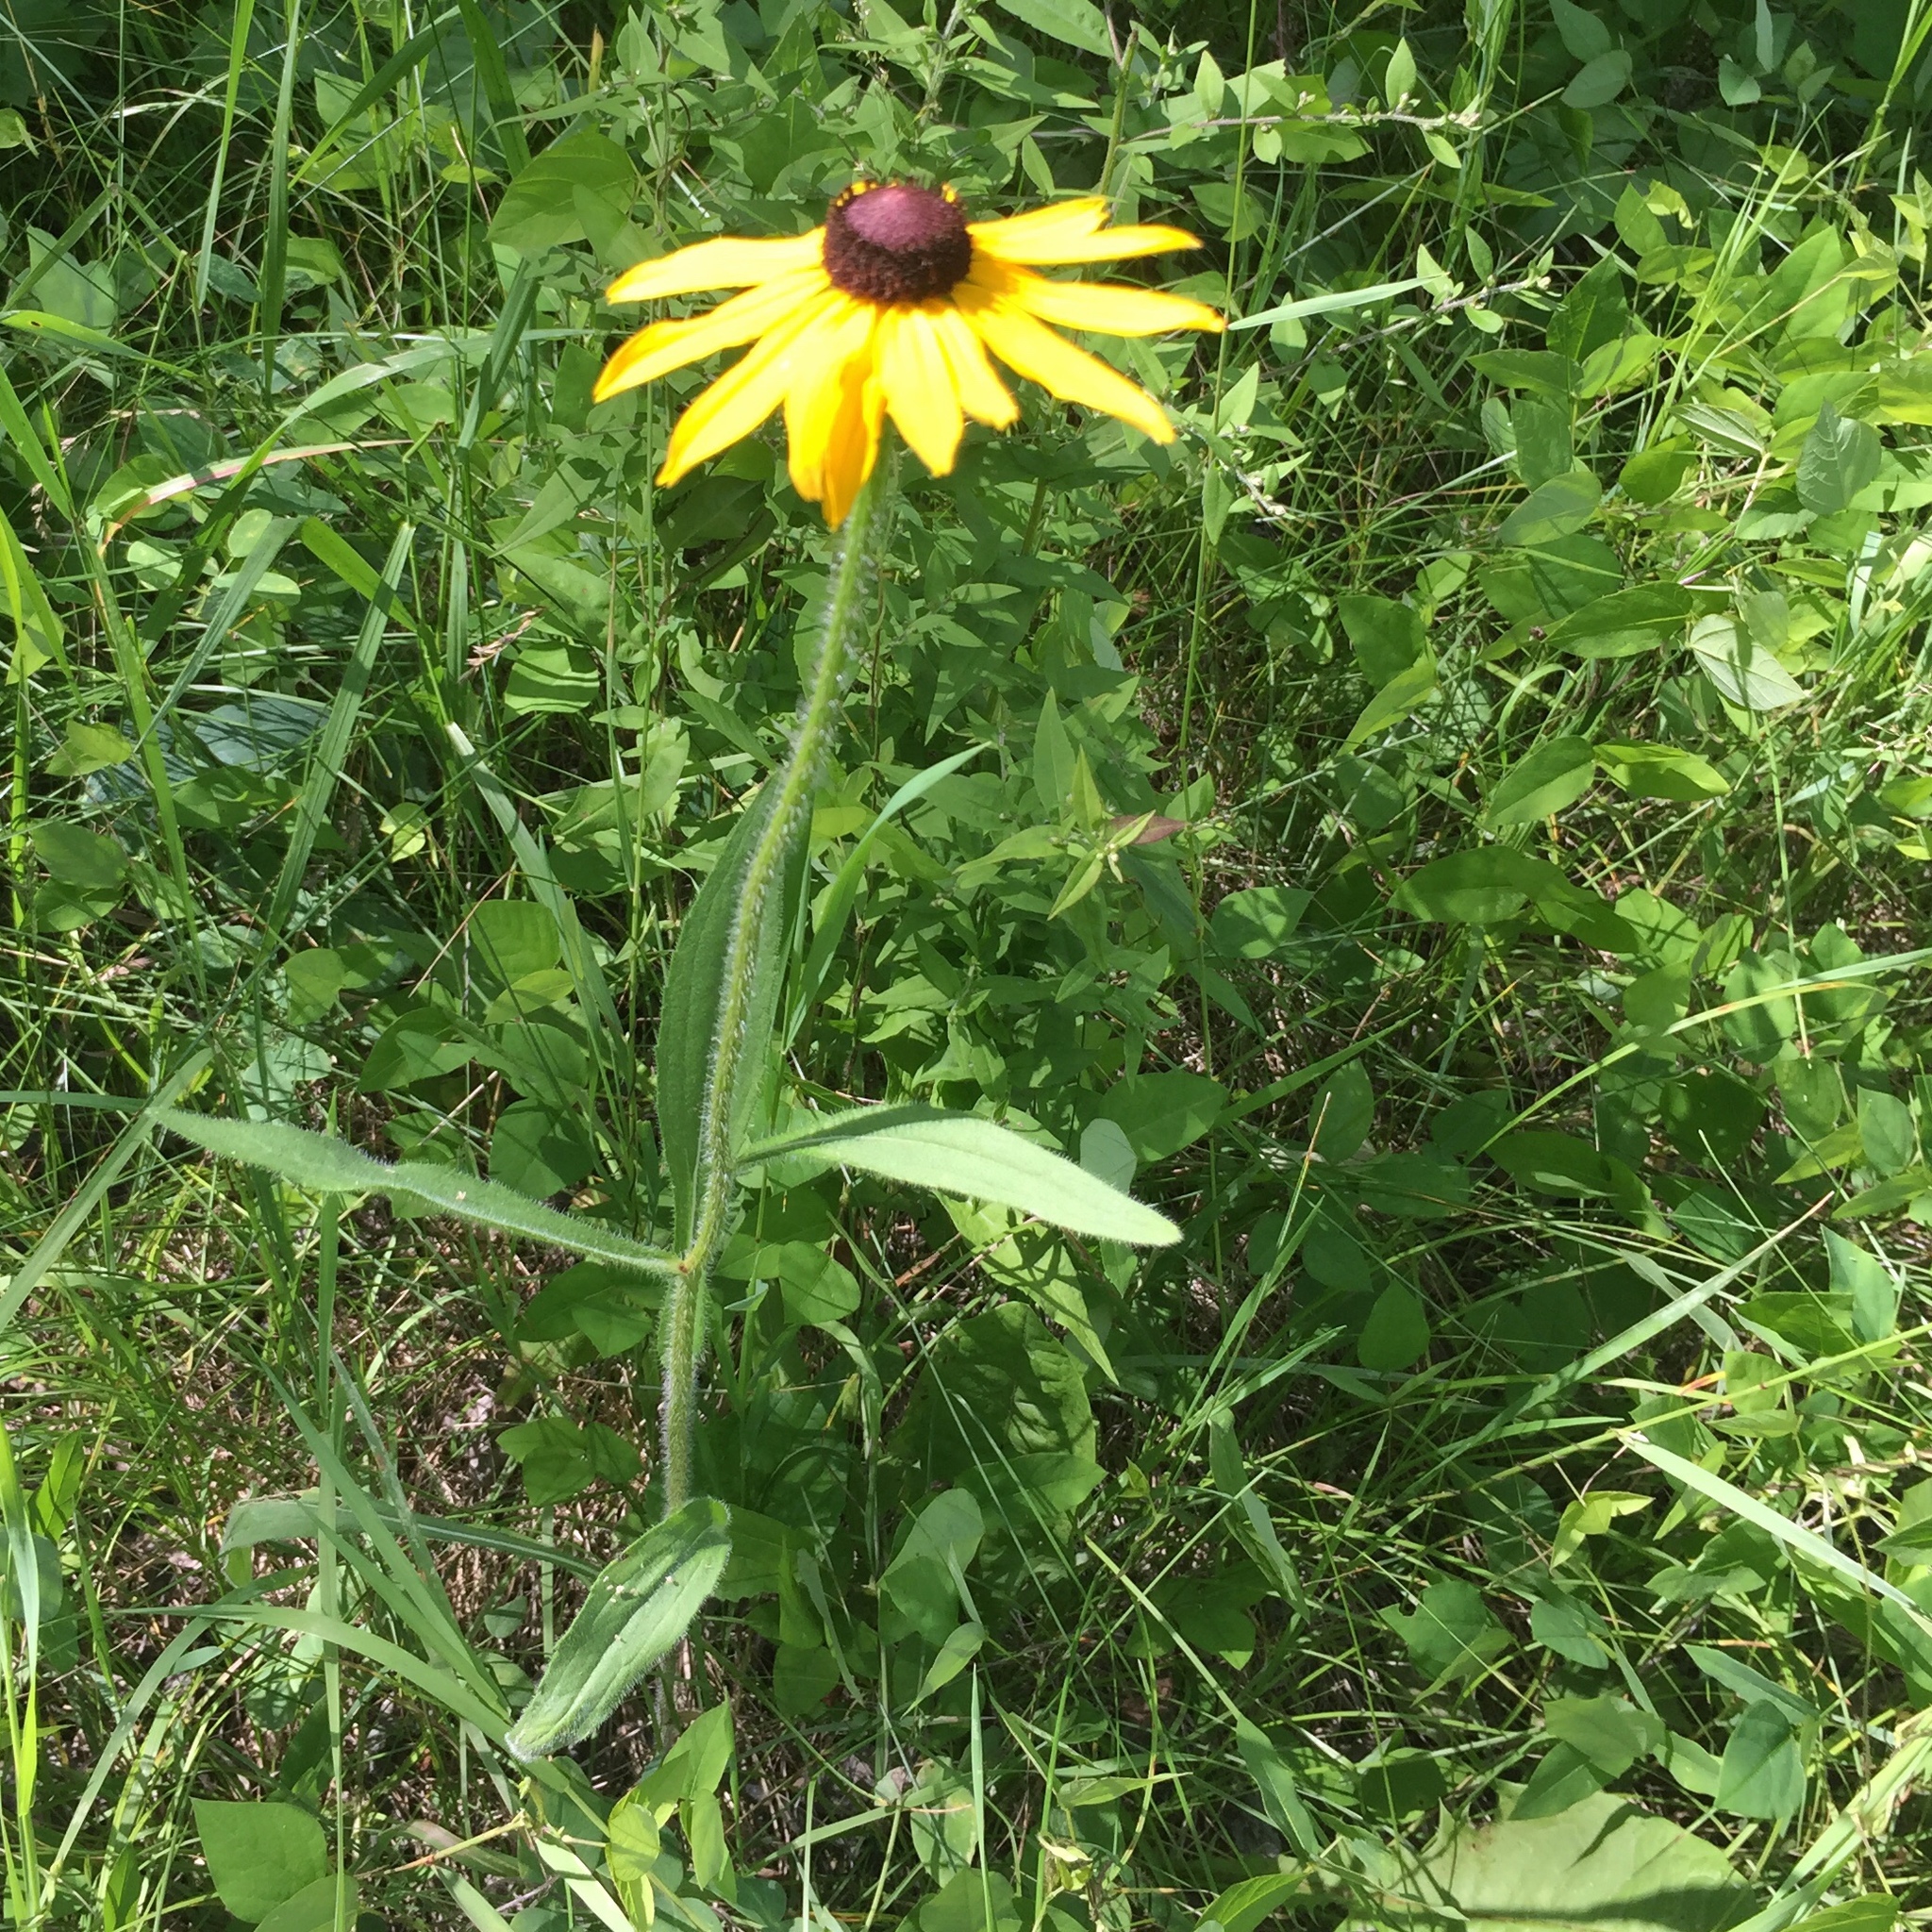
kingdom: Plantae
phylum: Tracheophyta
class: Magnoliopsida
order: Asterales
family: Asteraceae
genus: Rudbeckia
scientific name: Rudbeckia hirta
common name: Black-eyed-susan
